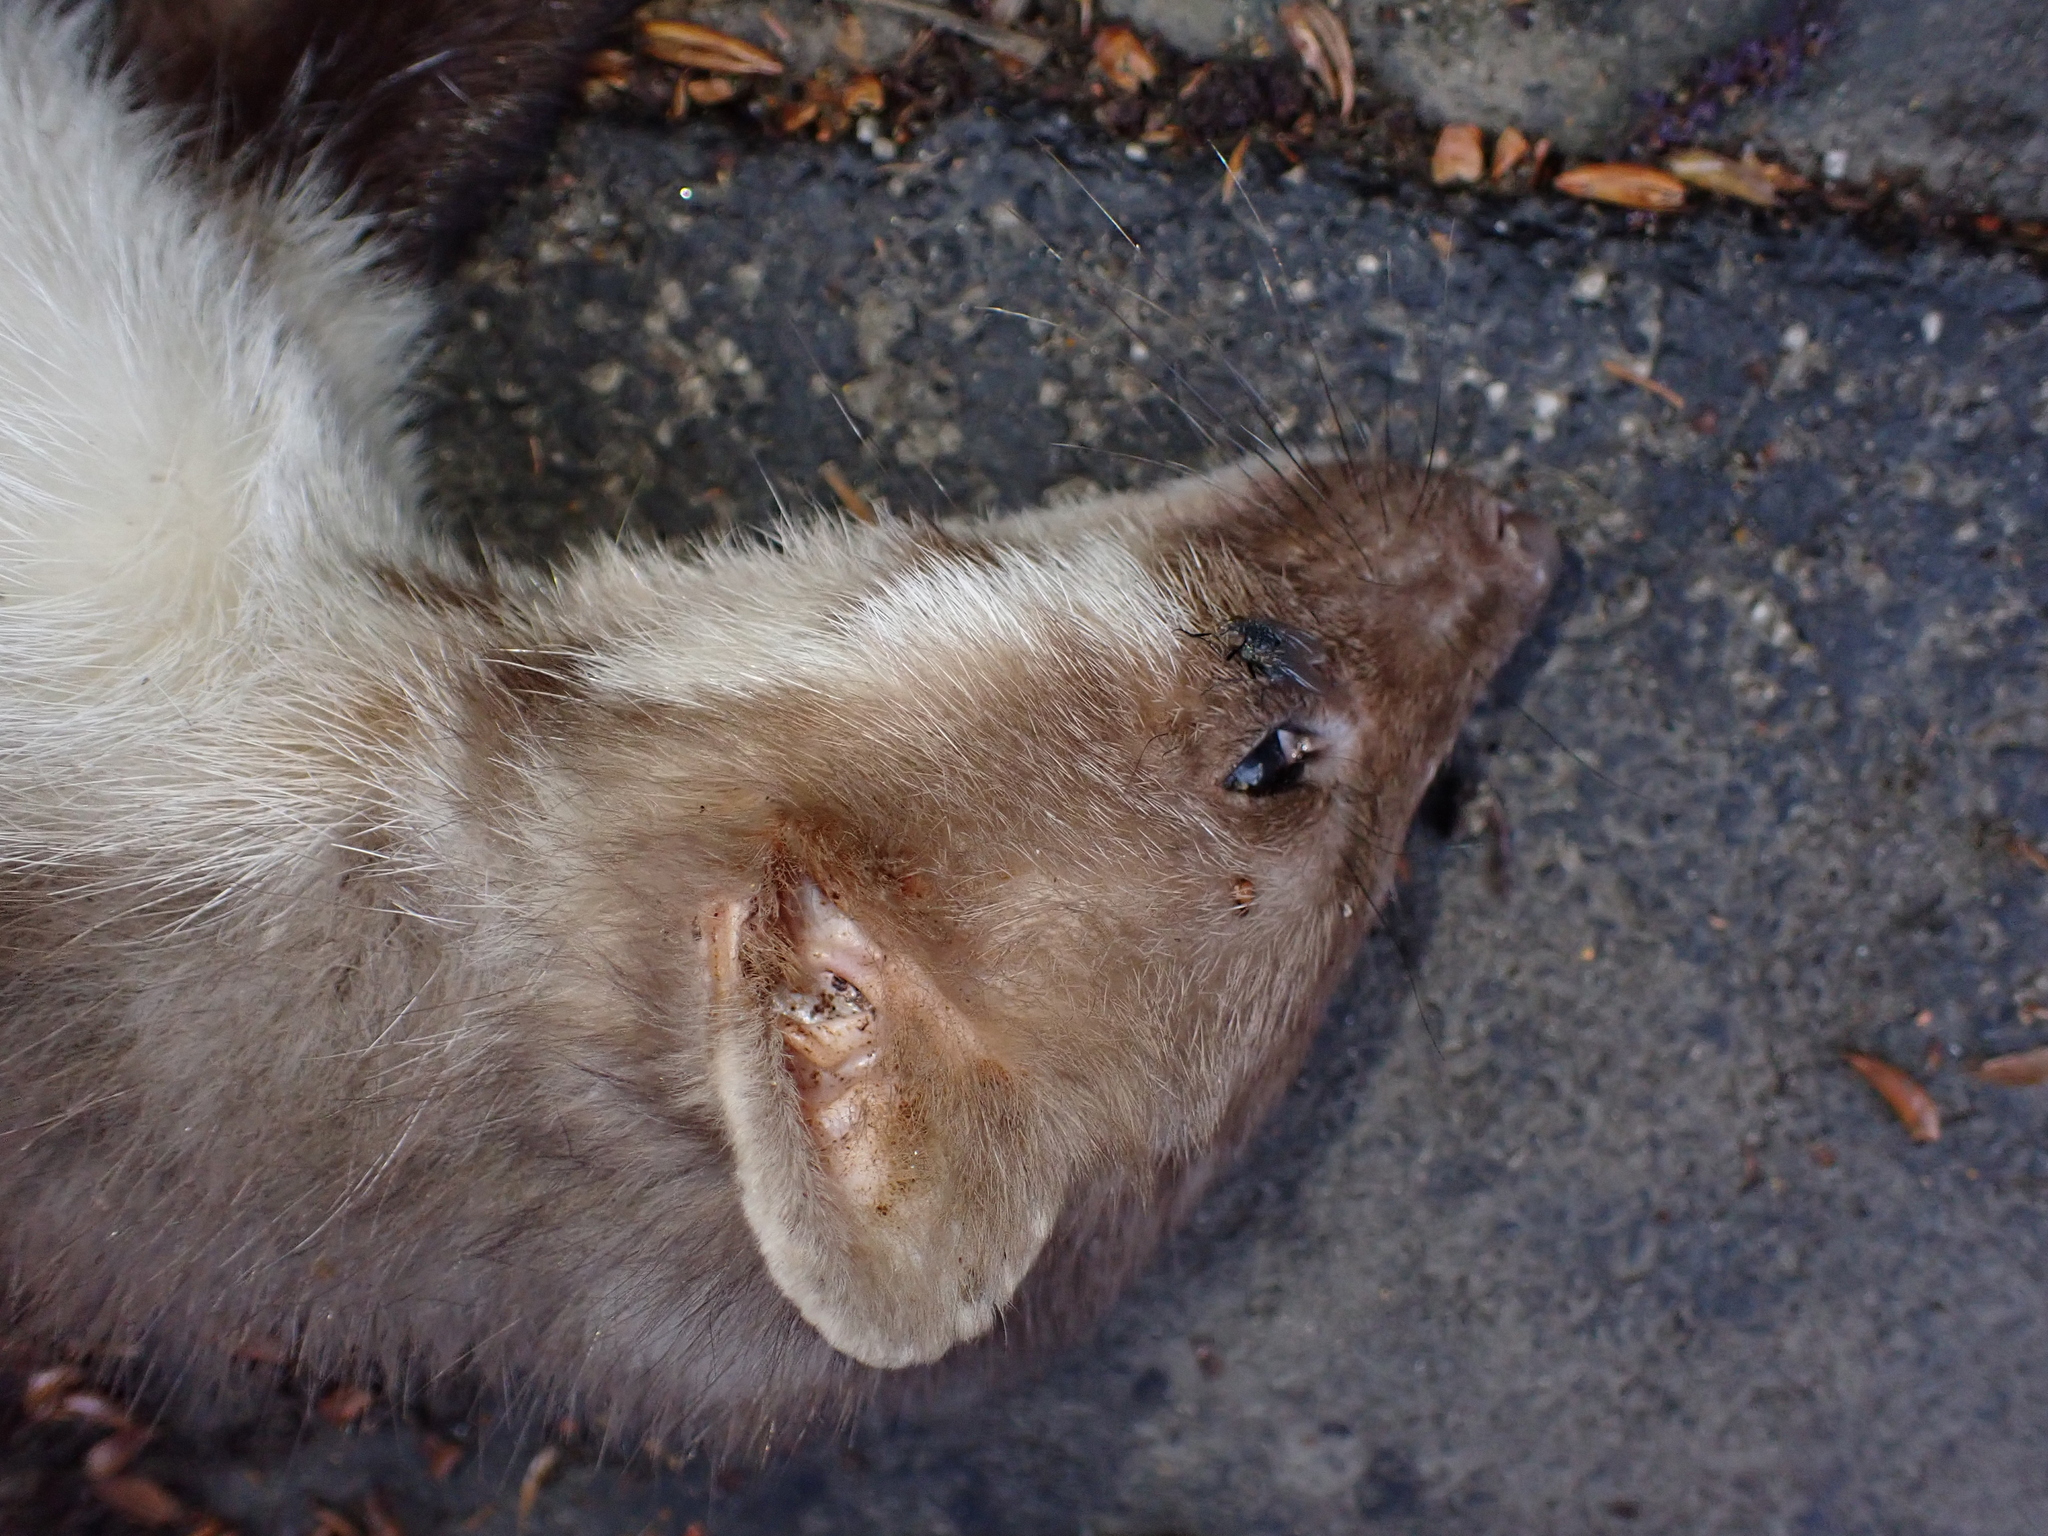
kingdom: Animalia
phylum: Chordata
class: Mammalia
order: Carnivora
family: Mustelidae
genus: Martes
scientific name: Martes foina
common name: Beech marten
